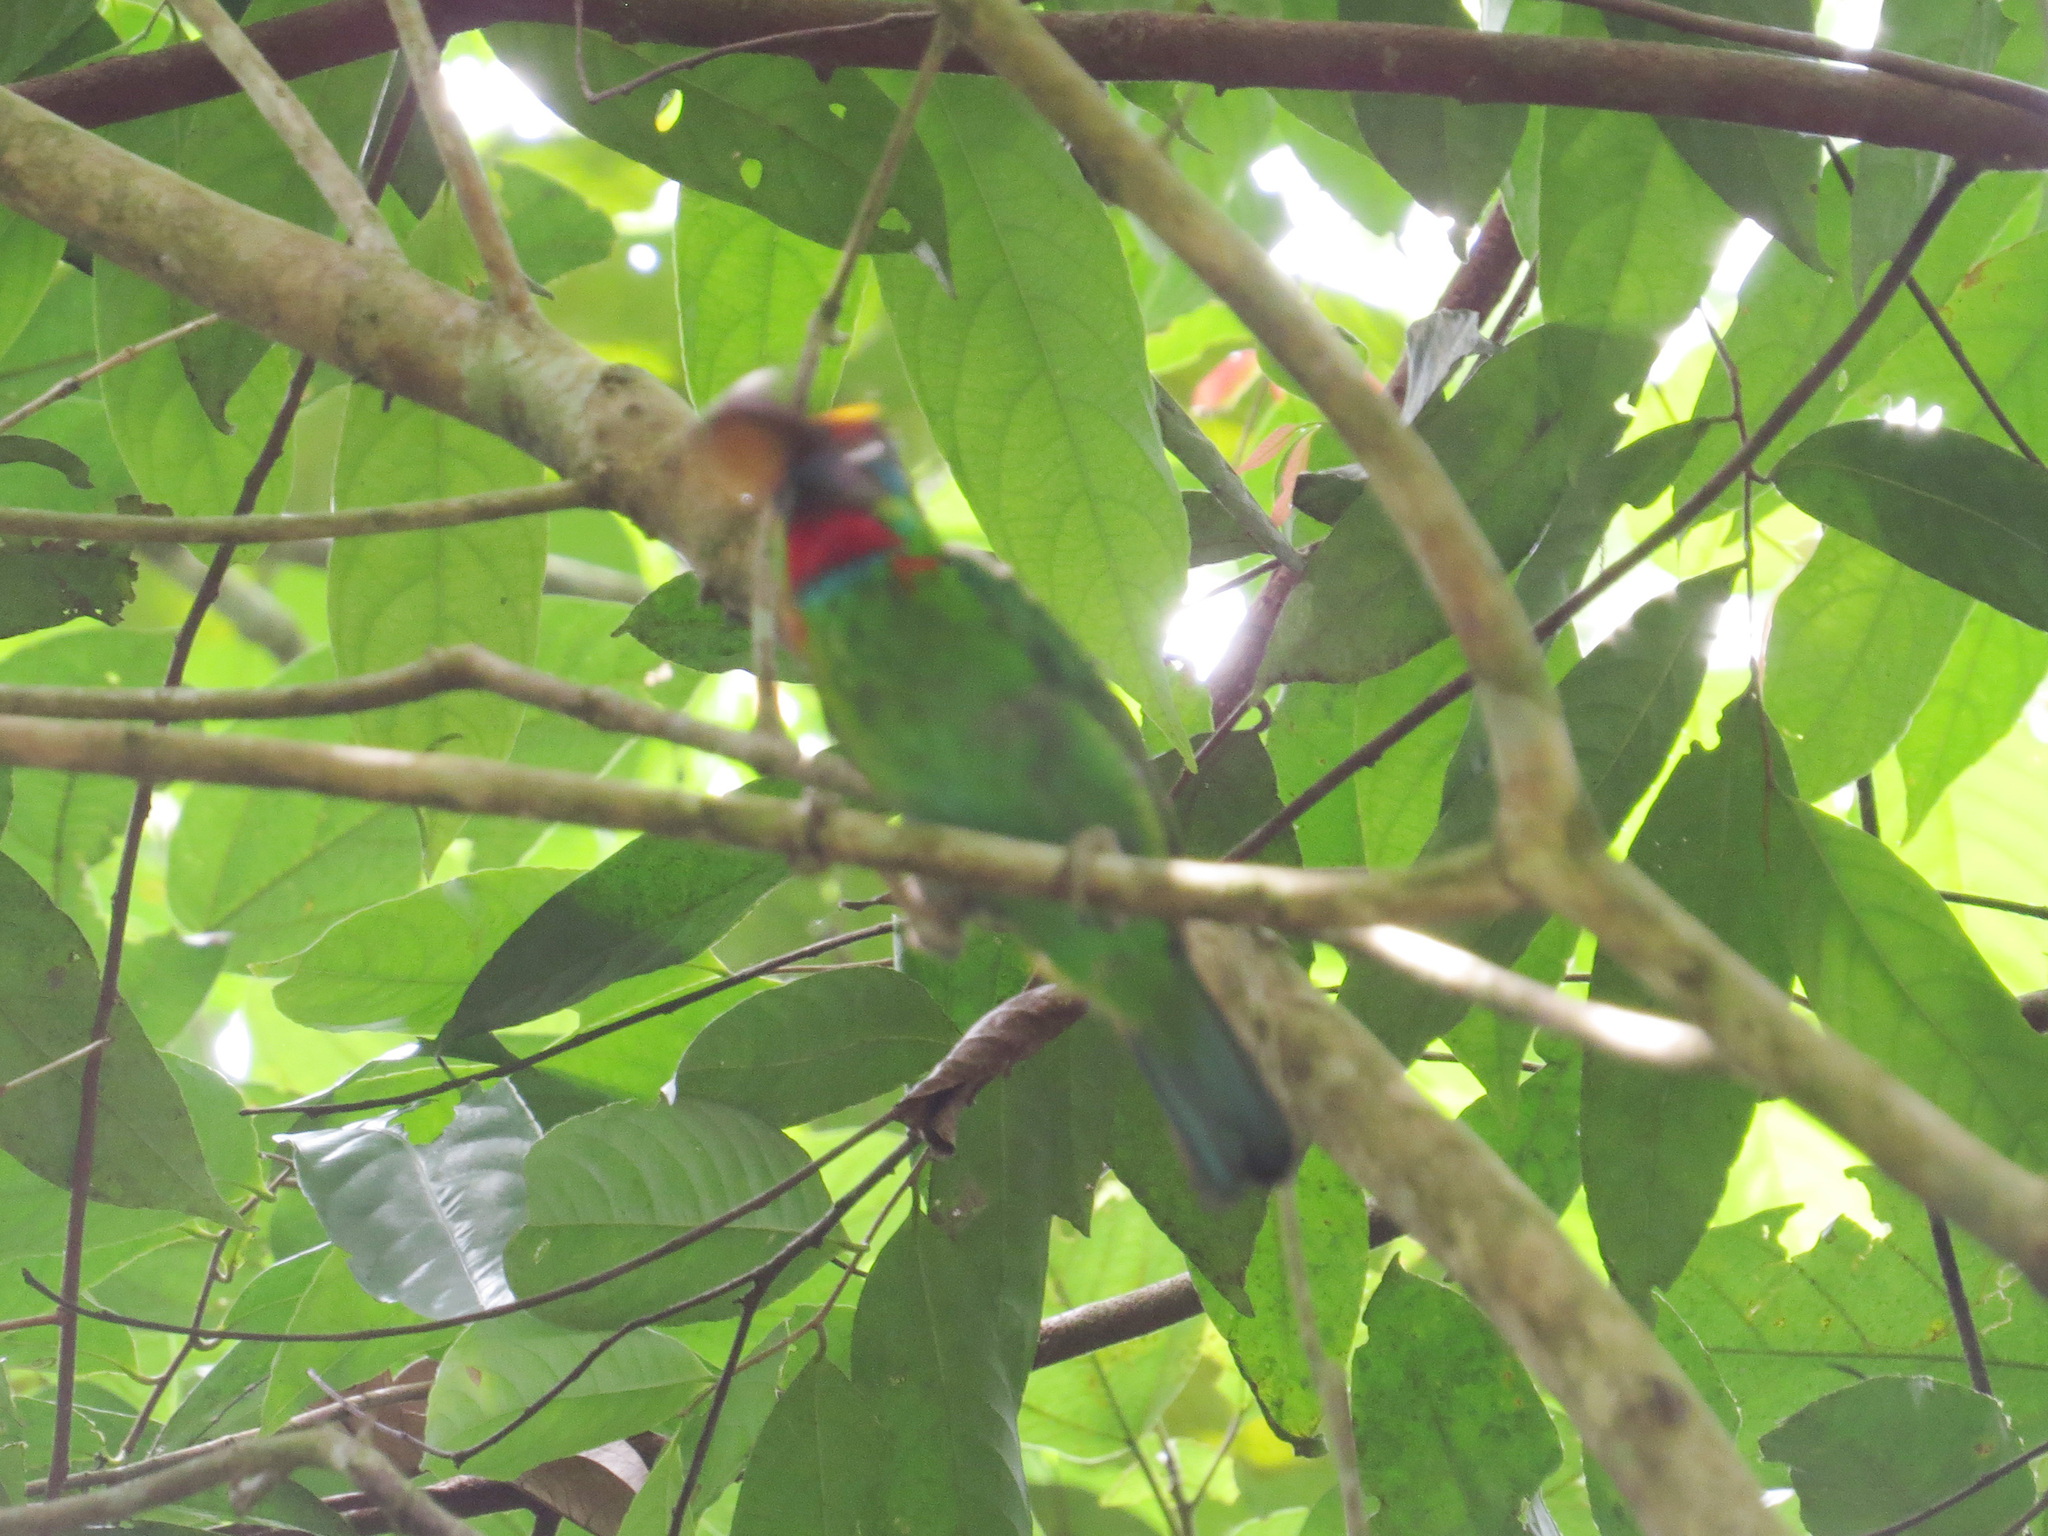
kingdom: Animalia
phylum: Chordata
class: Aves
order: Piciformes
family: Megalaimidae
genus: Psilopogon
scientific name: Psilopogon mystacophanos
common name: Red-throated barbet
